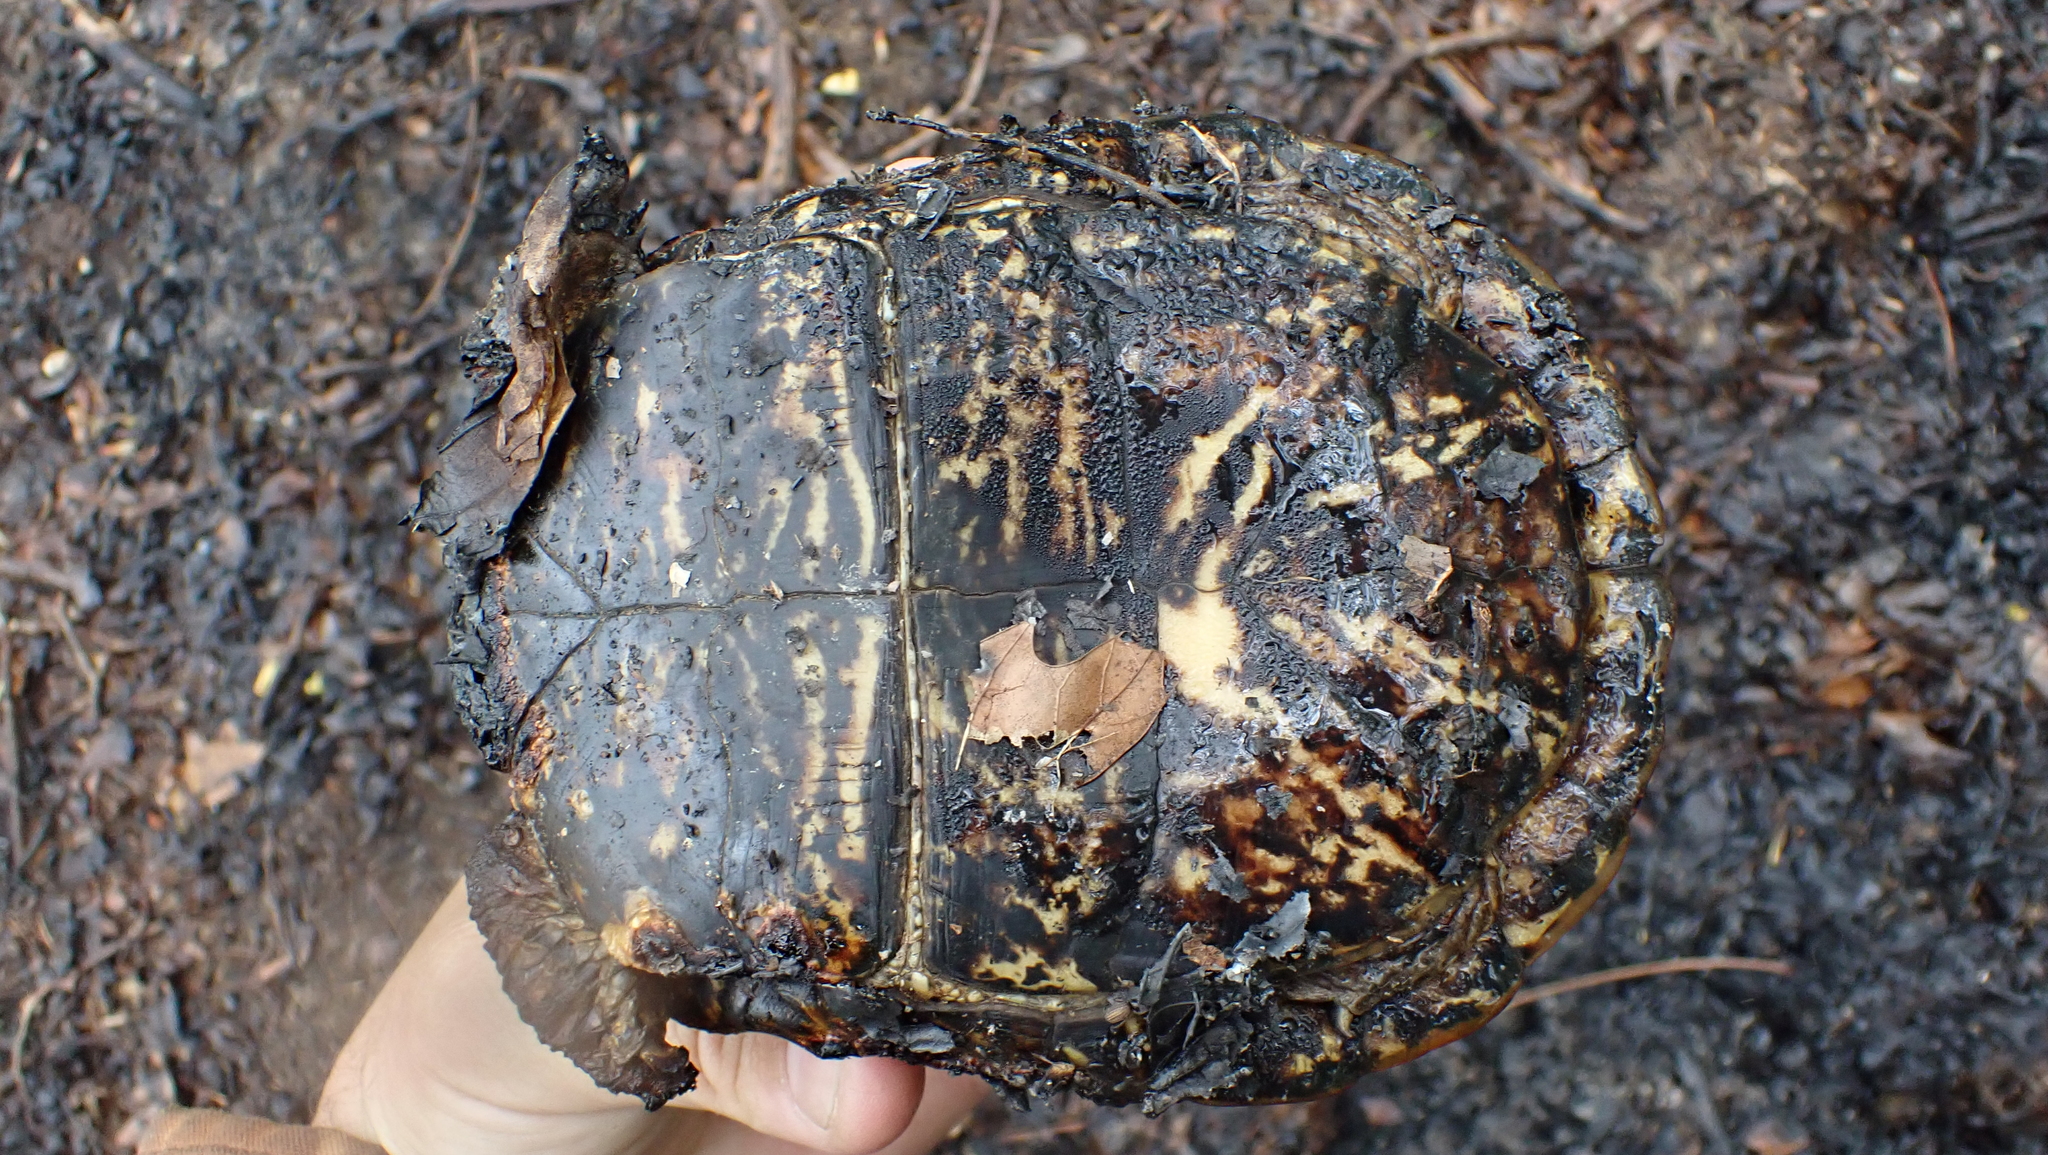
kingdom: Animalia
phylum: Chordata
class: Testudines
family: Emydidae
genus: Terrapene
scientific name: Terrapene carolina
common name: Common box turtle
